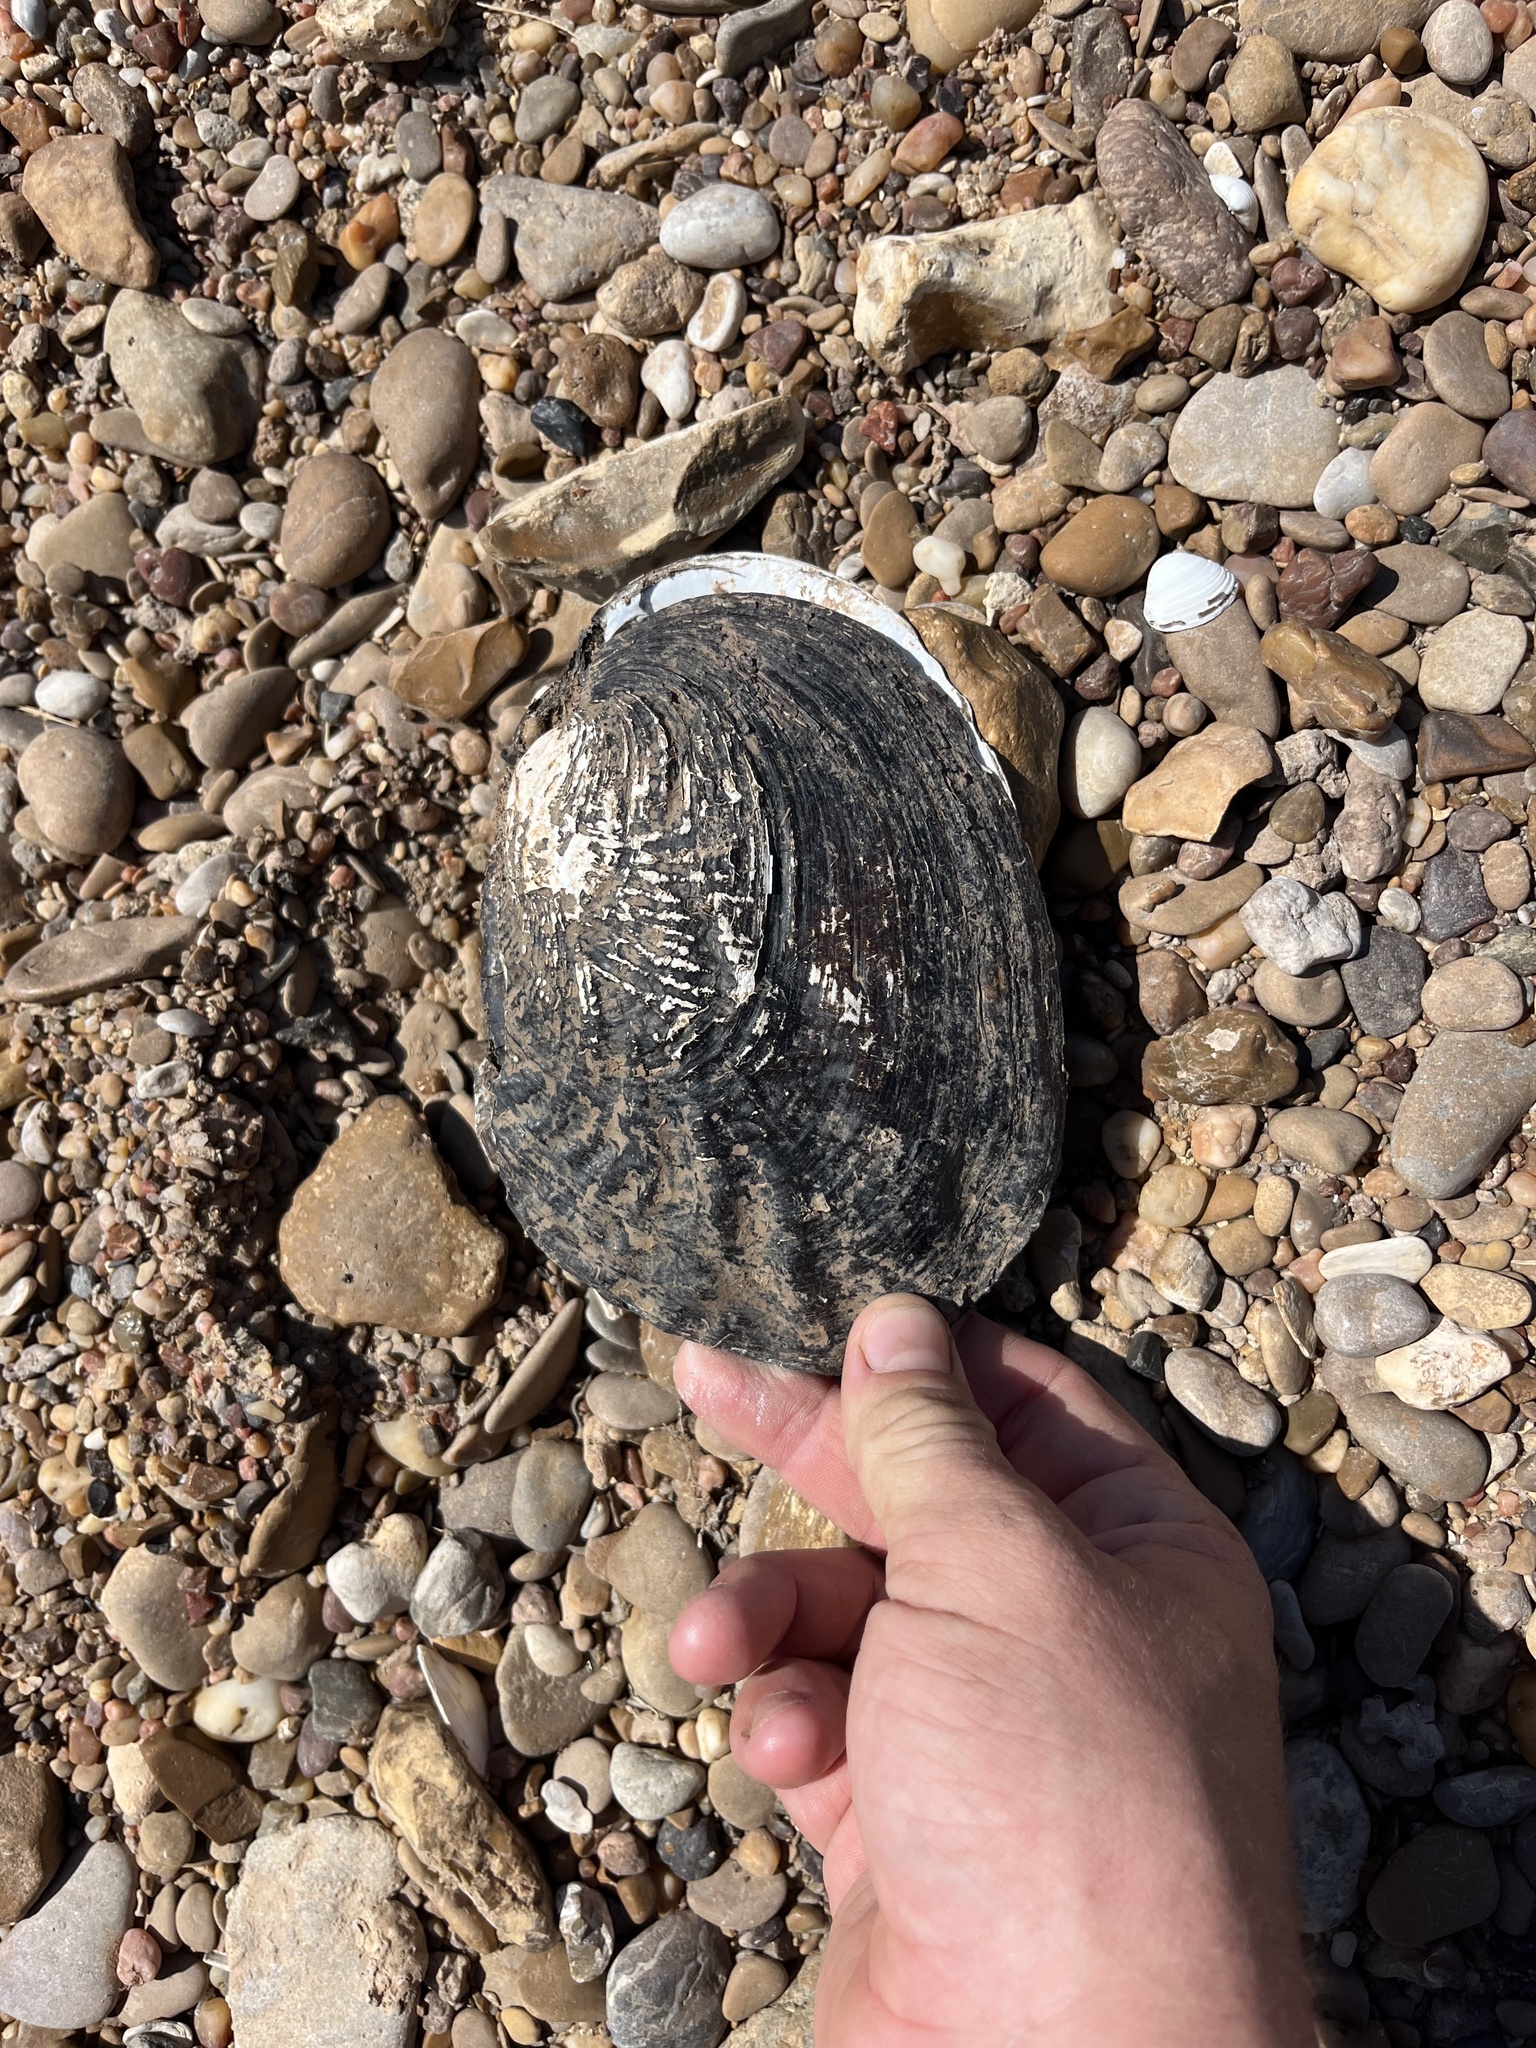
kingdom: Animalia
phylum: Mollusca
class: Bivalvia
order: Unionida
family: Unionidae
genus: Megalonaias
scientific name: Megalonaias nervosa
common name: Washboard
